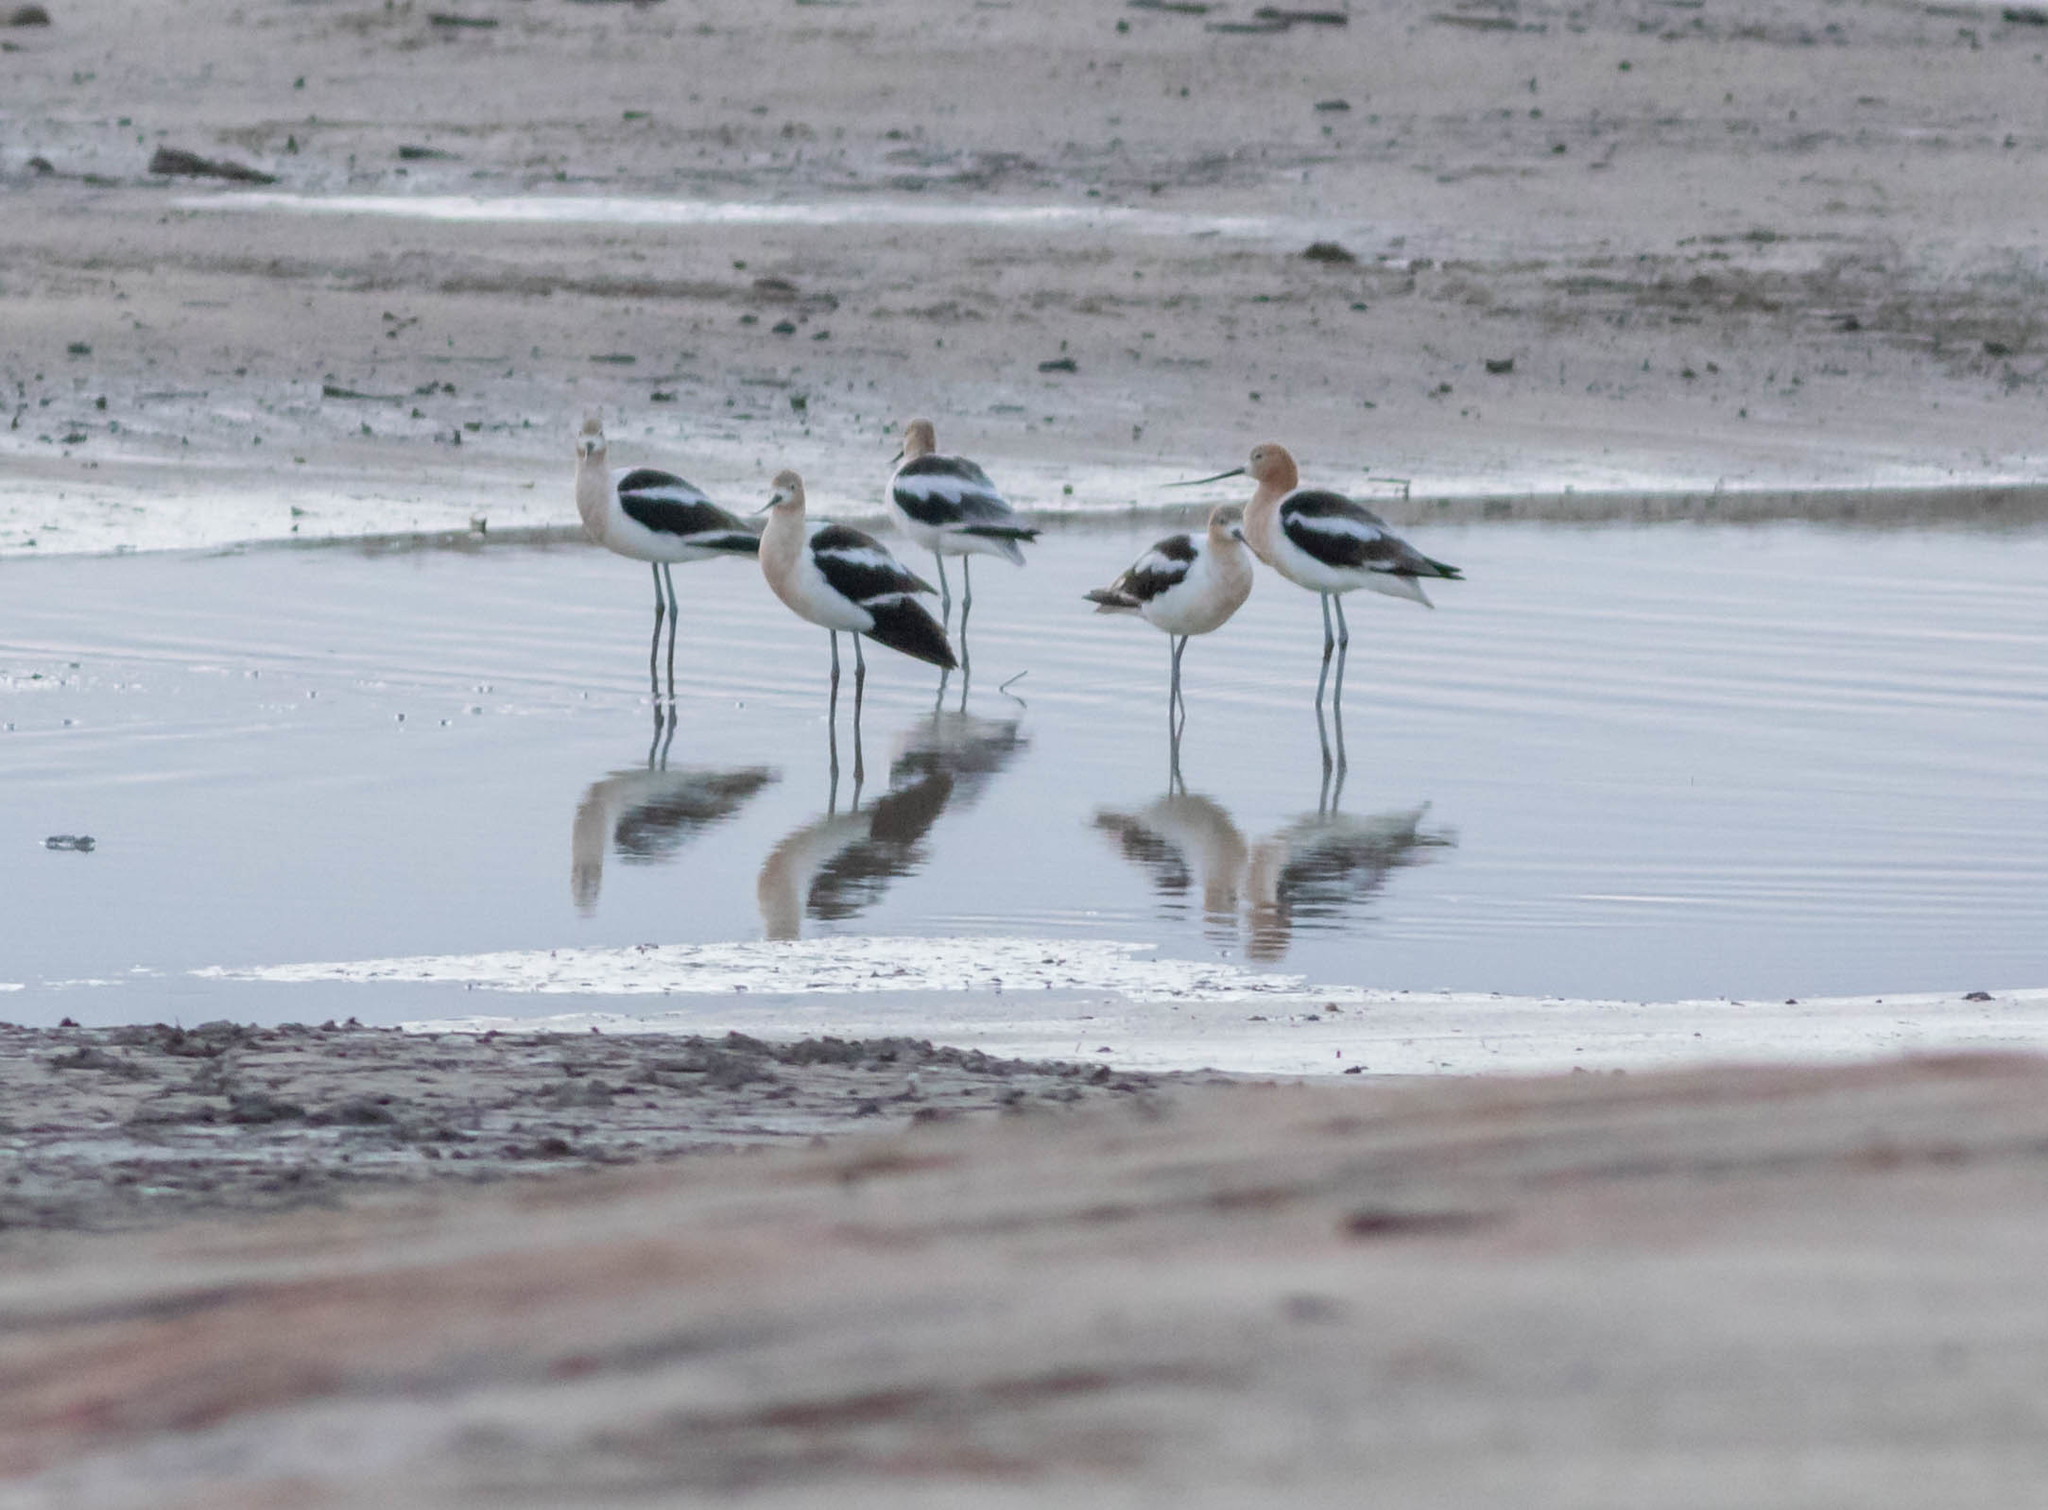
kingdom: Animalia
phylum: Chordata
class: Aves
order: Charadriiformes
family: Recurvirostridae
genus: Recurvirostra
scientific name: Recurvirostra americana
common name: American avocet
